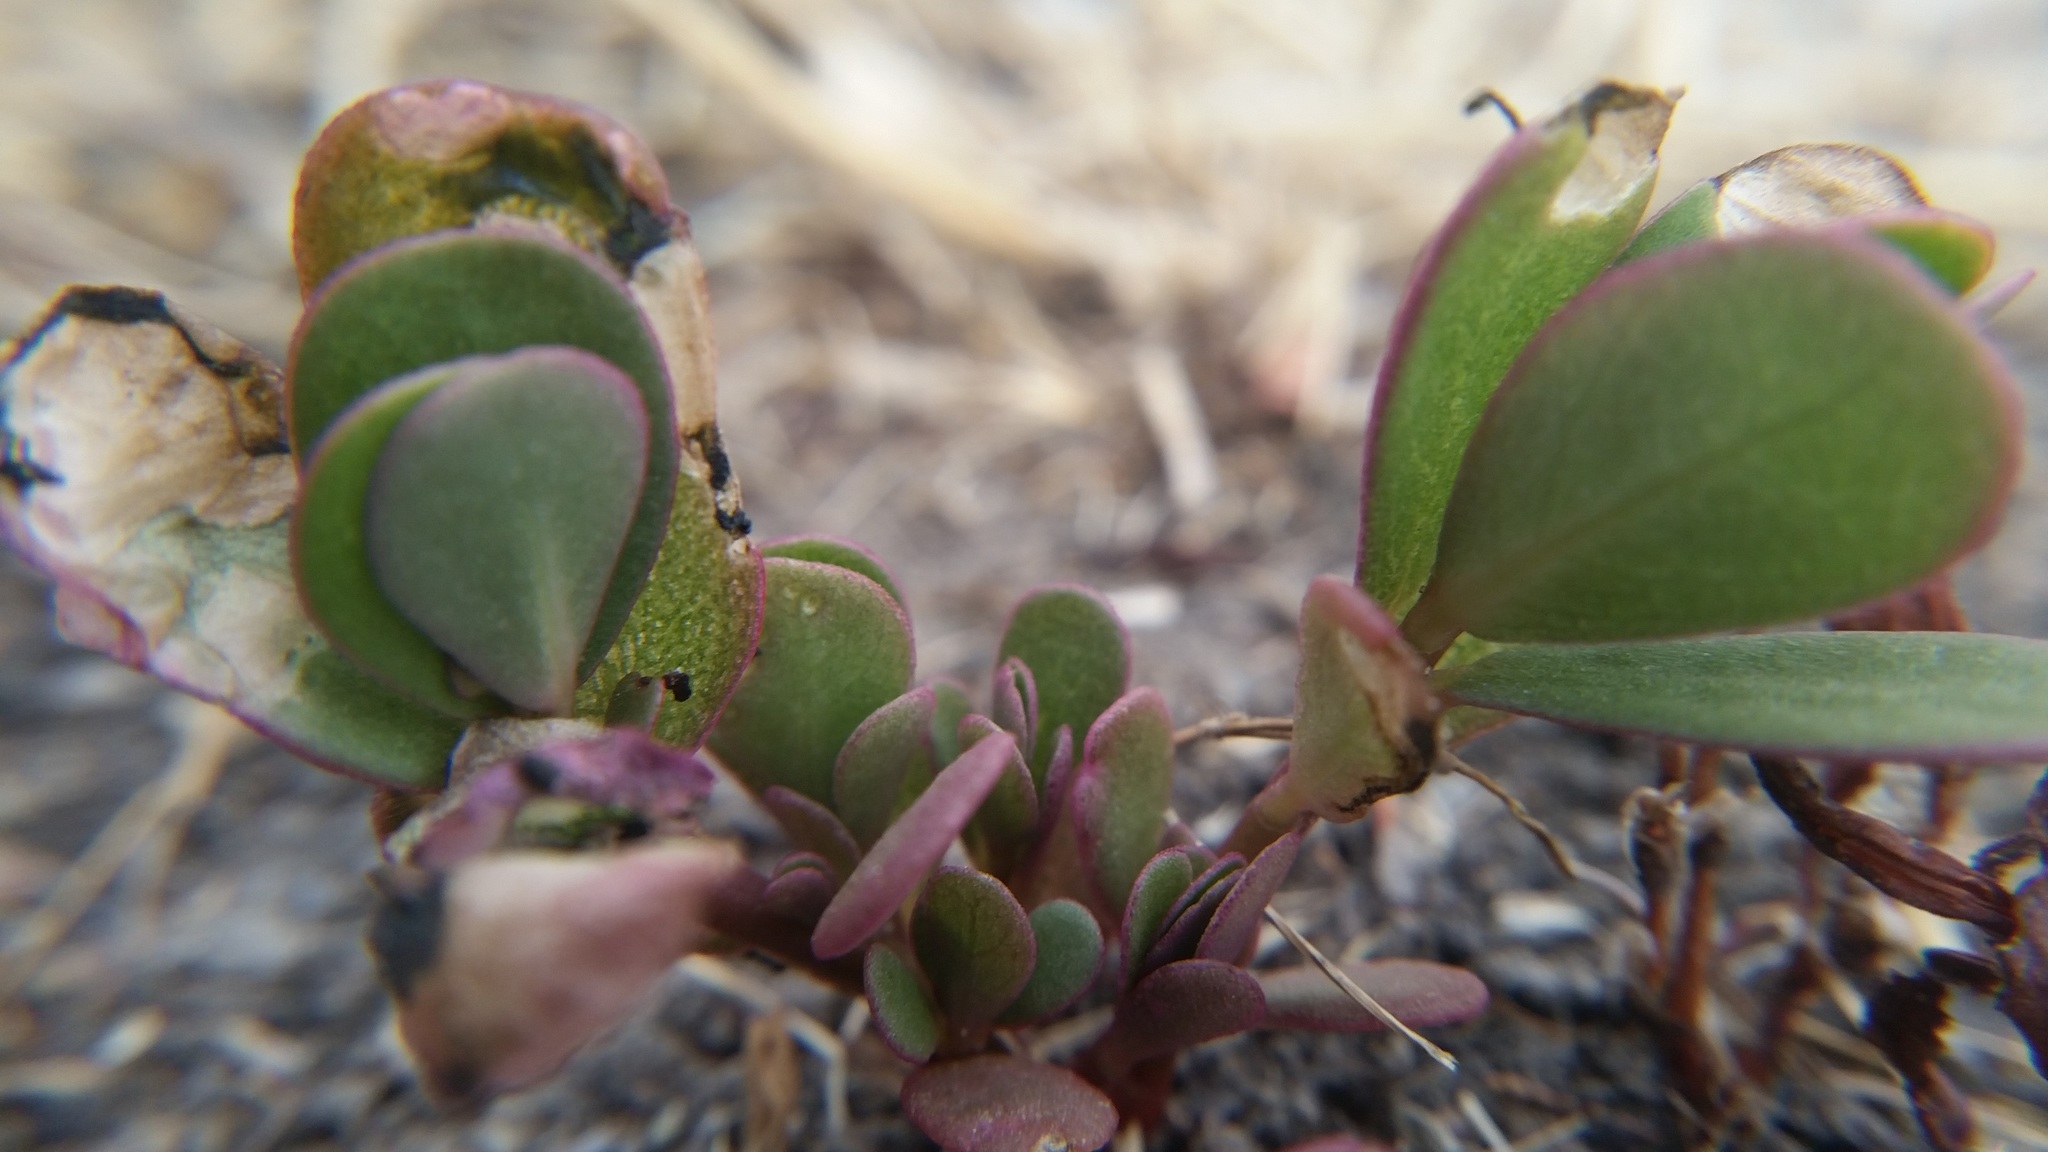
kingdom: Plantae
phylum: Tracheophyta
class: Magnoliopsida
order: Caryophyllales
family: Portulacaceae
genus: Portulaca
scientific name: Portulaca oleracea
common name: Common purslane
